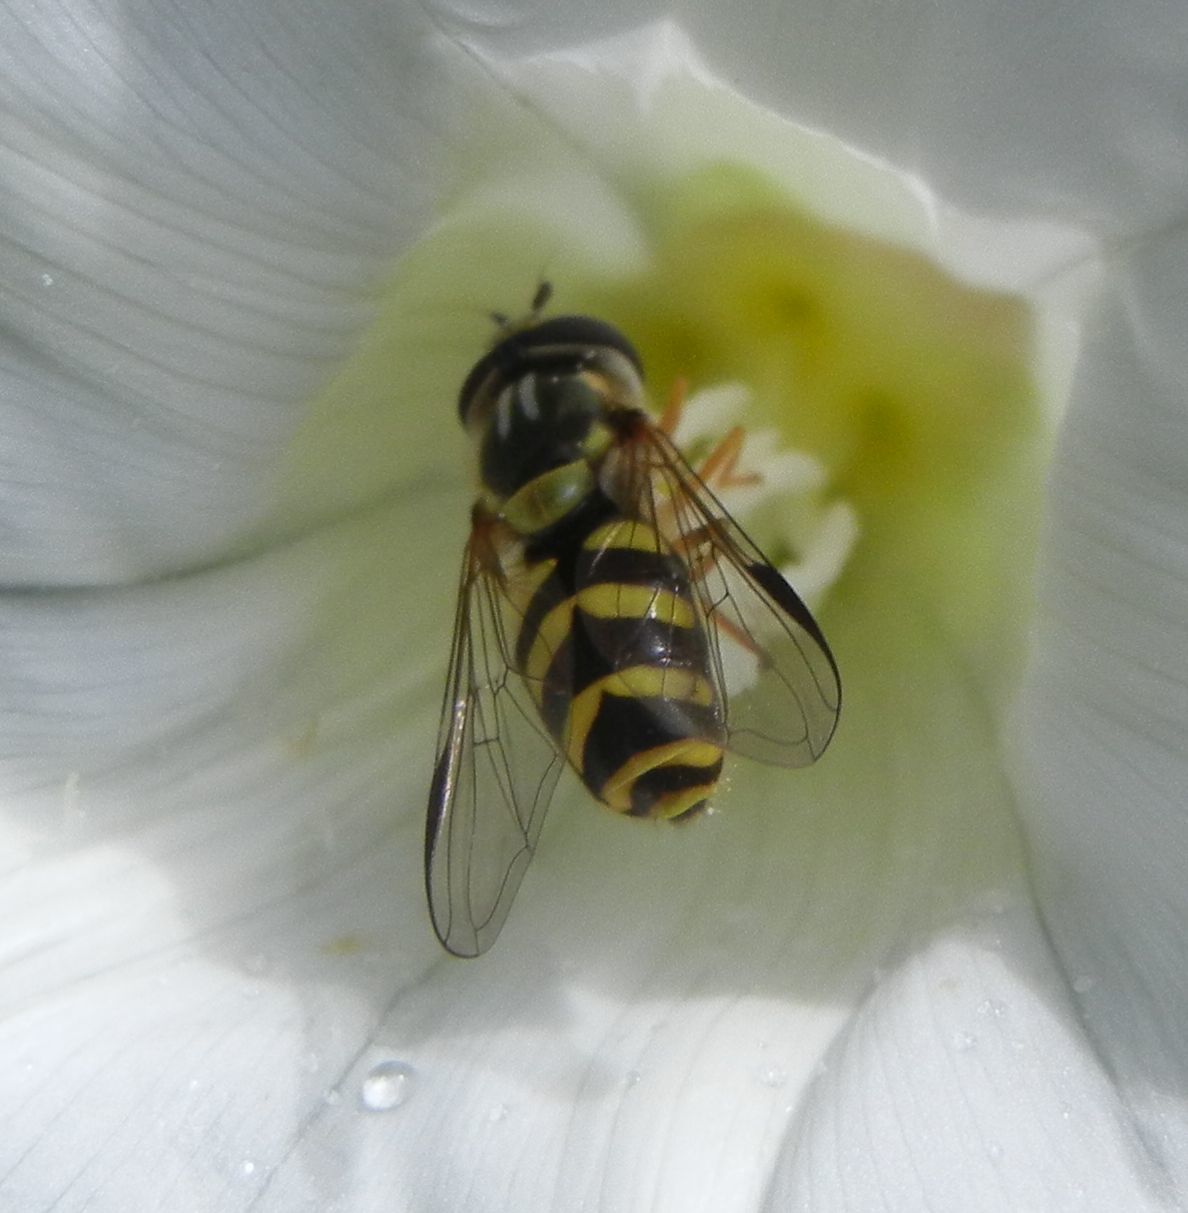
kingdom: Animalia
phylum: Arthropoda
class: Insecta
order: Diptera
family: Syrphidae
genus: Dasysyrphus
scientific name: Dasysyrphus albostriatus
